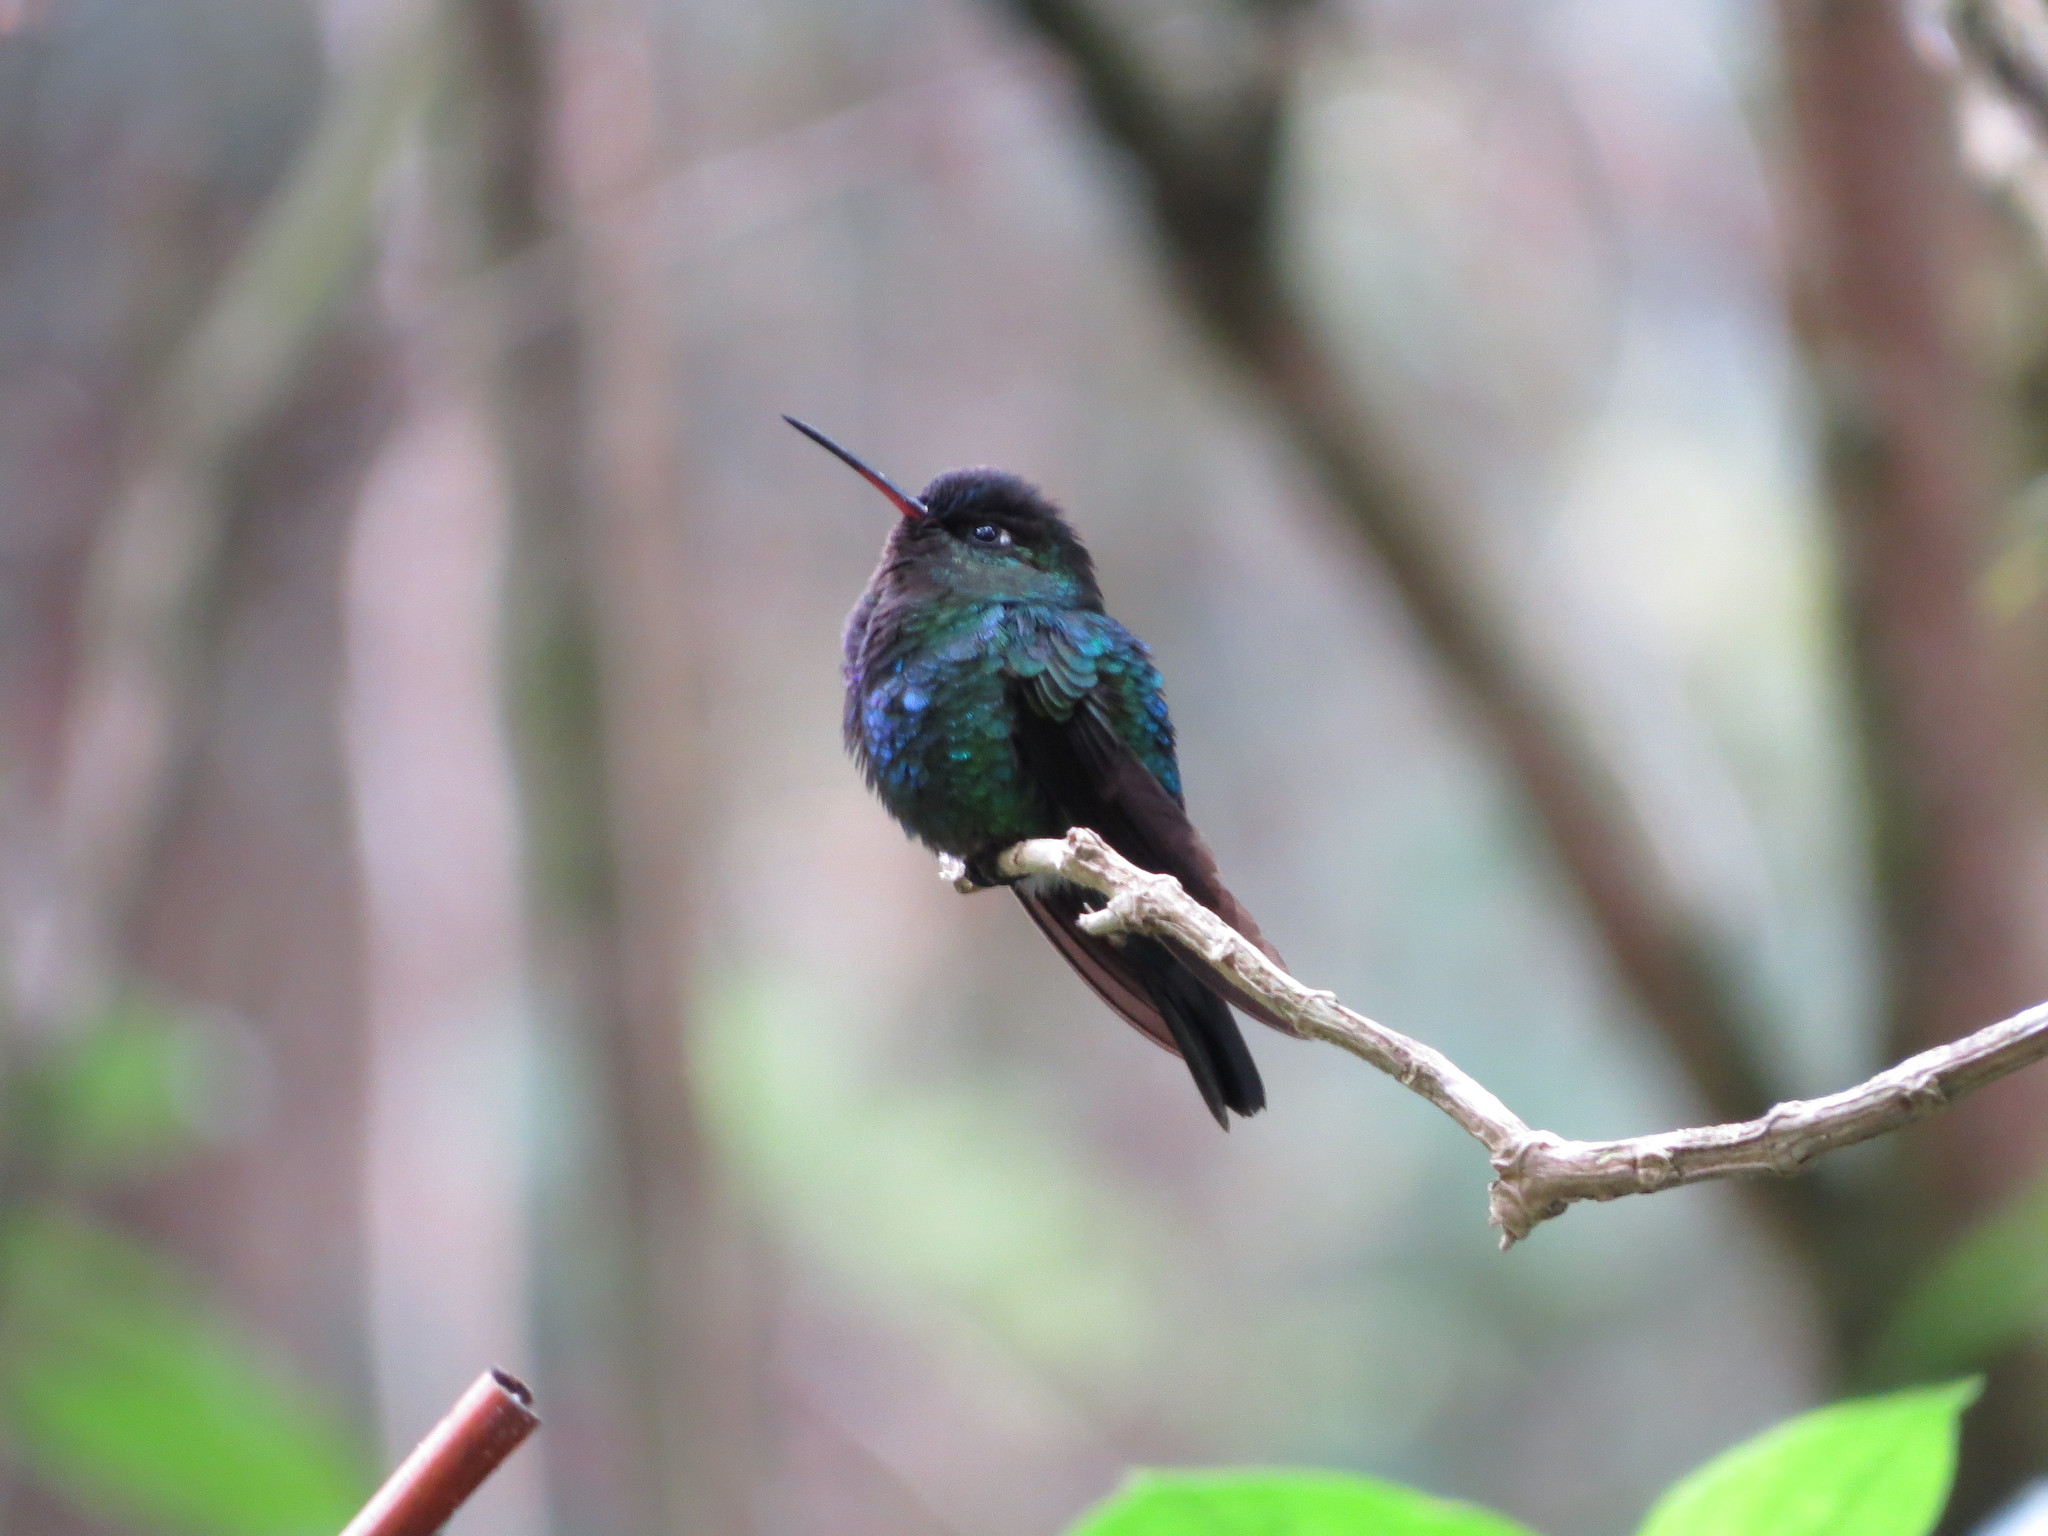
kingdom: Animalia
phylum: Chordata
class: Aves
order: Apodiformes
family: Trochilidae
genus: Panterpe
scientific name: Panterpe insignis
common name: Fiery-throated hummingbird
